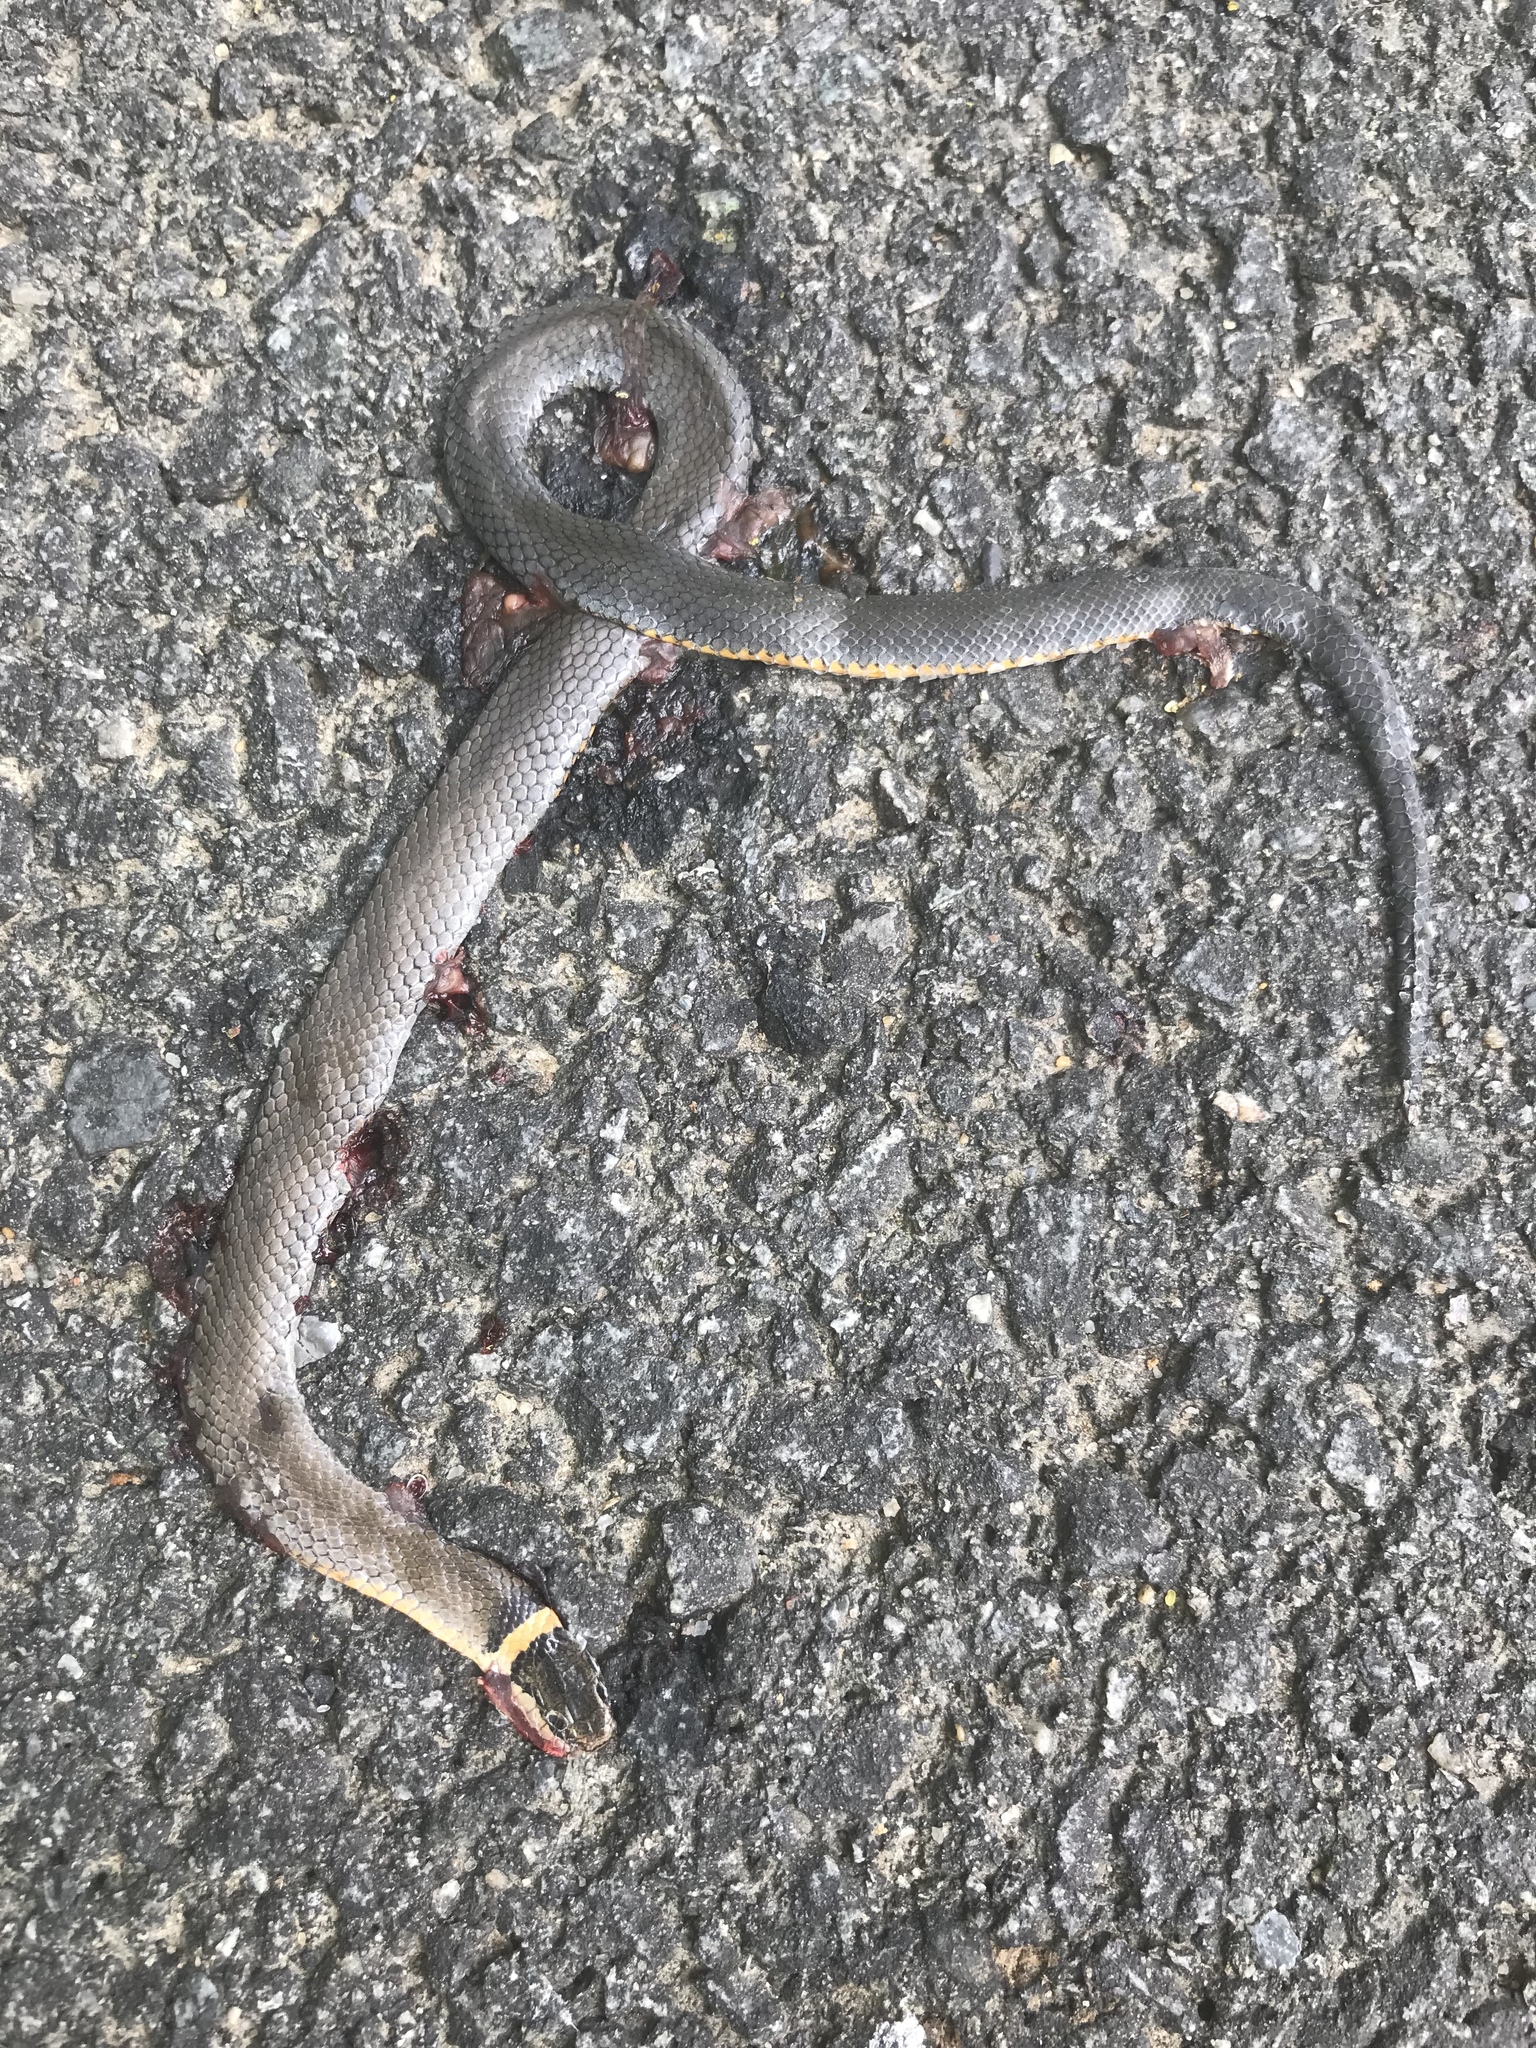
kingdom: Animalia
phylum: Chordata
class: Squamata
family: Colubridae
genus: Diadophis
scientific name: Diadophis punctatus
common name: Ringneck snake
